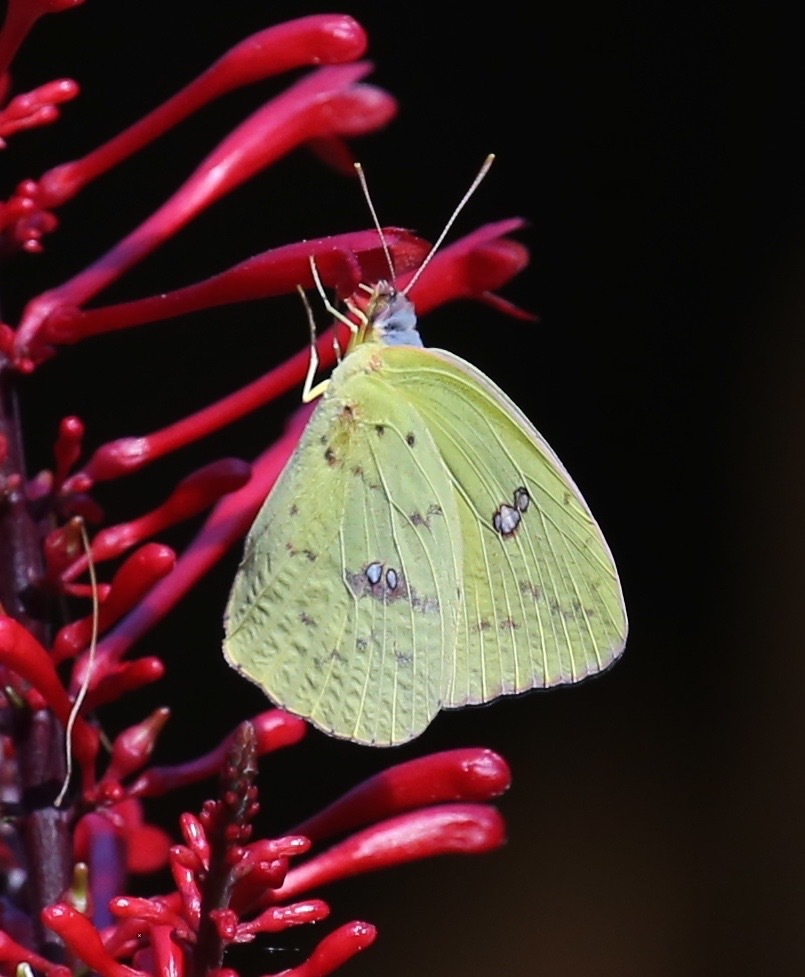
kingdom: Animalia
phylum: Arthropoda
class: Insecta
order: Lepidoptera
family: Pieridae
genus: Phoebis
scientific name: Phoebis sennae
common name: Cloudless sulphur
